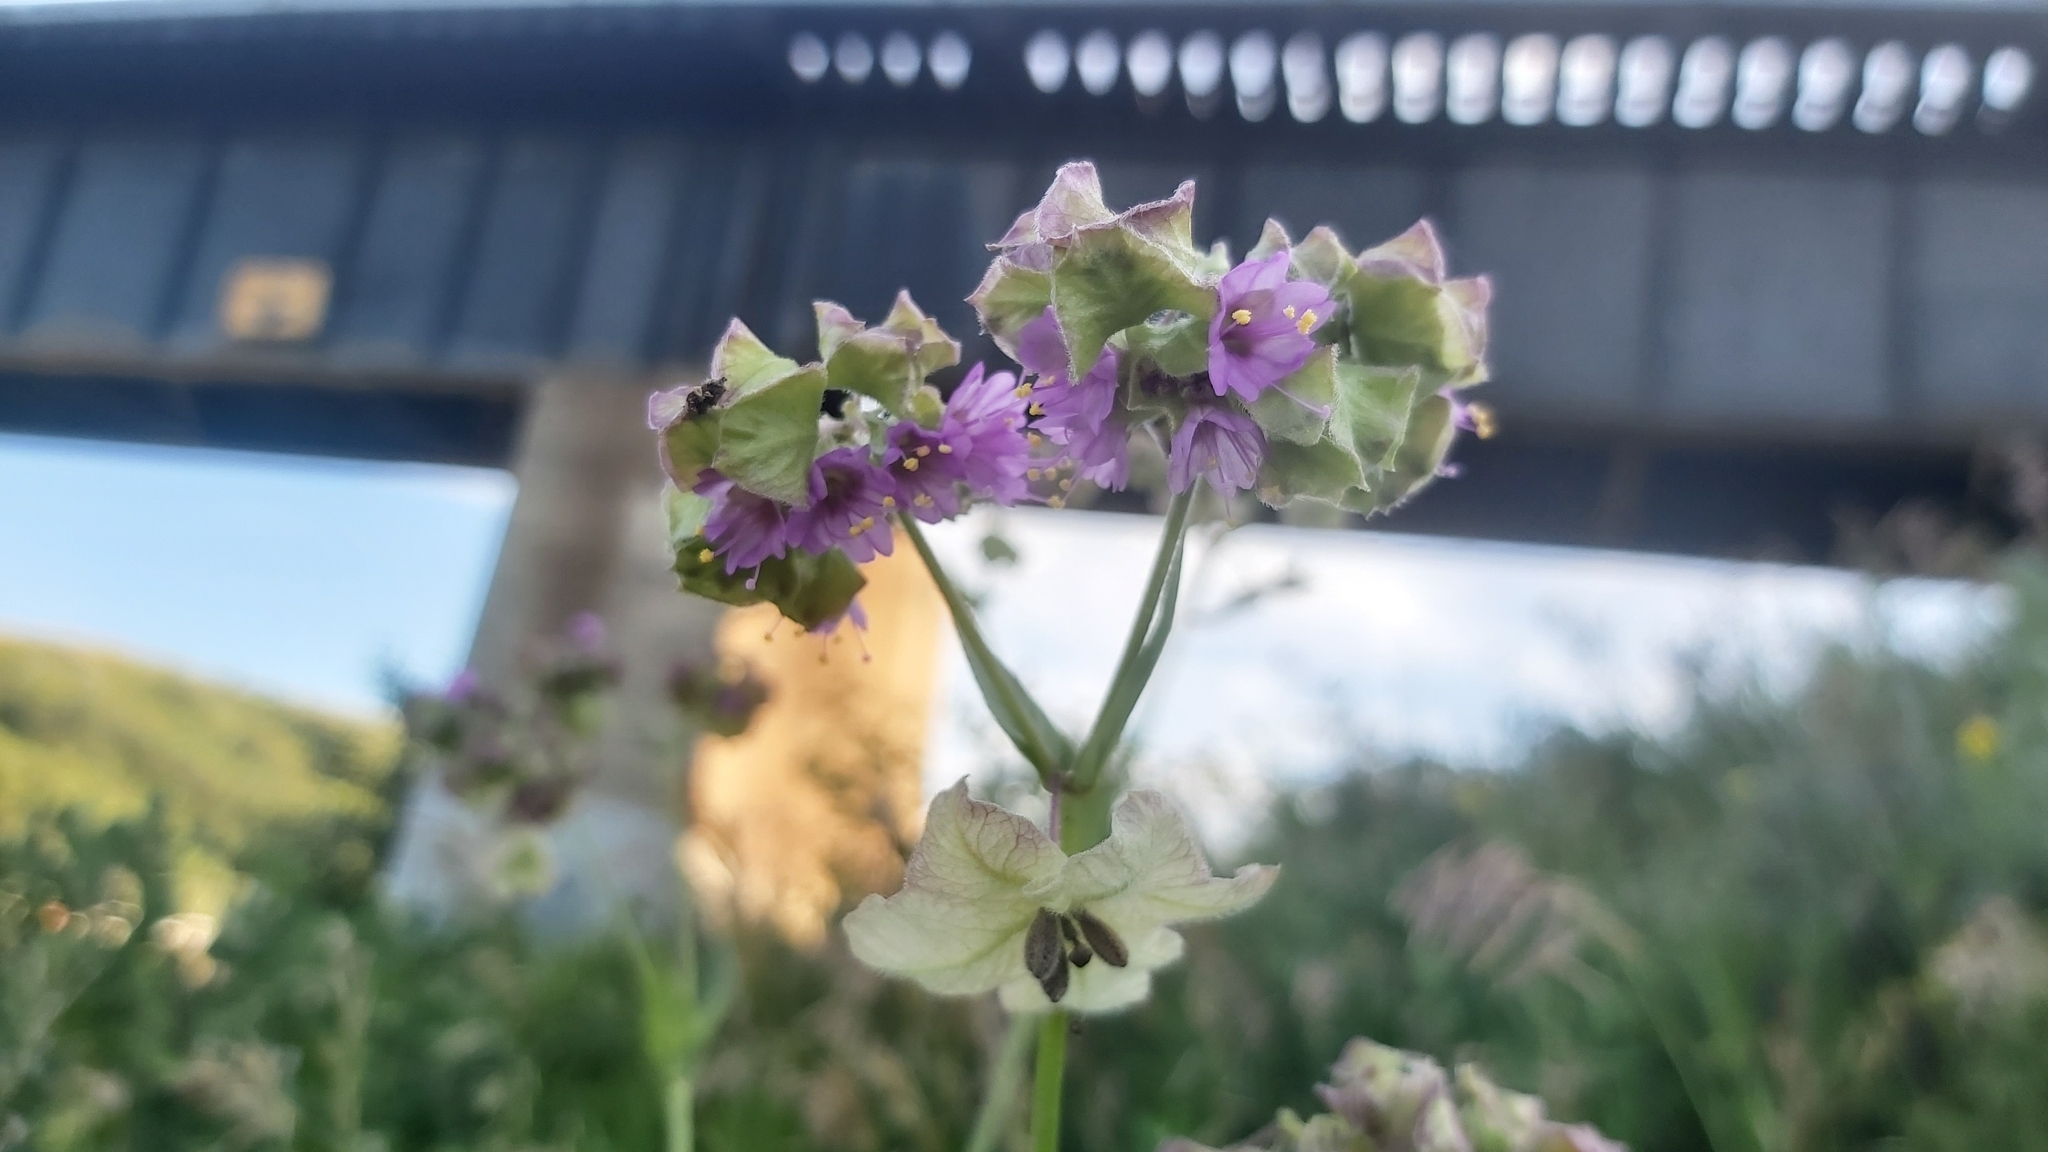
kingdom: Plantae
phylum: Tracheophyta
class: Magnoliopsida
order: Caryophyllales
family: Nyctaginaceae
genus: Mirabilis
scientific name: Mirabilis nyctaginea
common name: Umbrella wort
